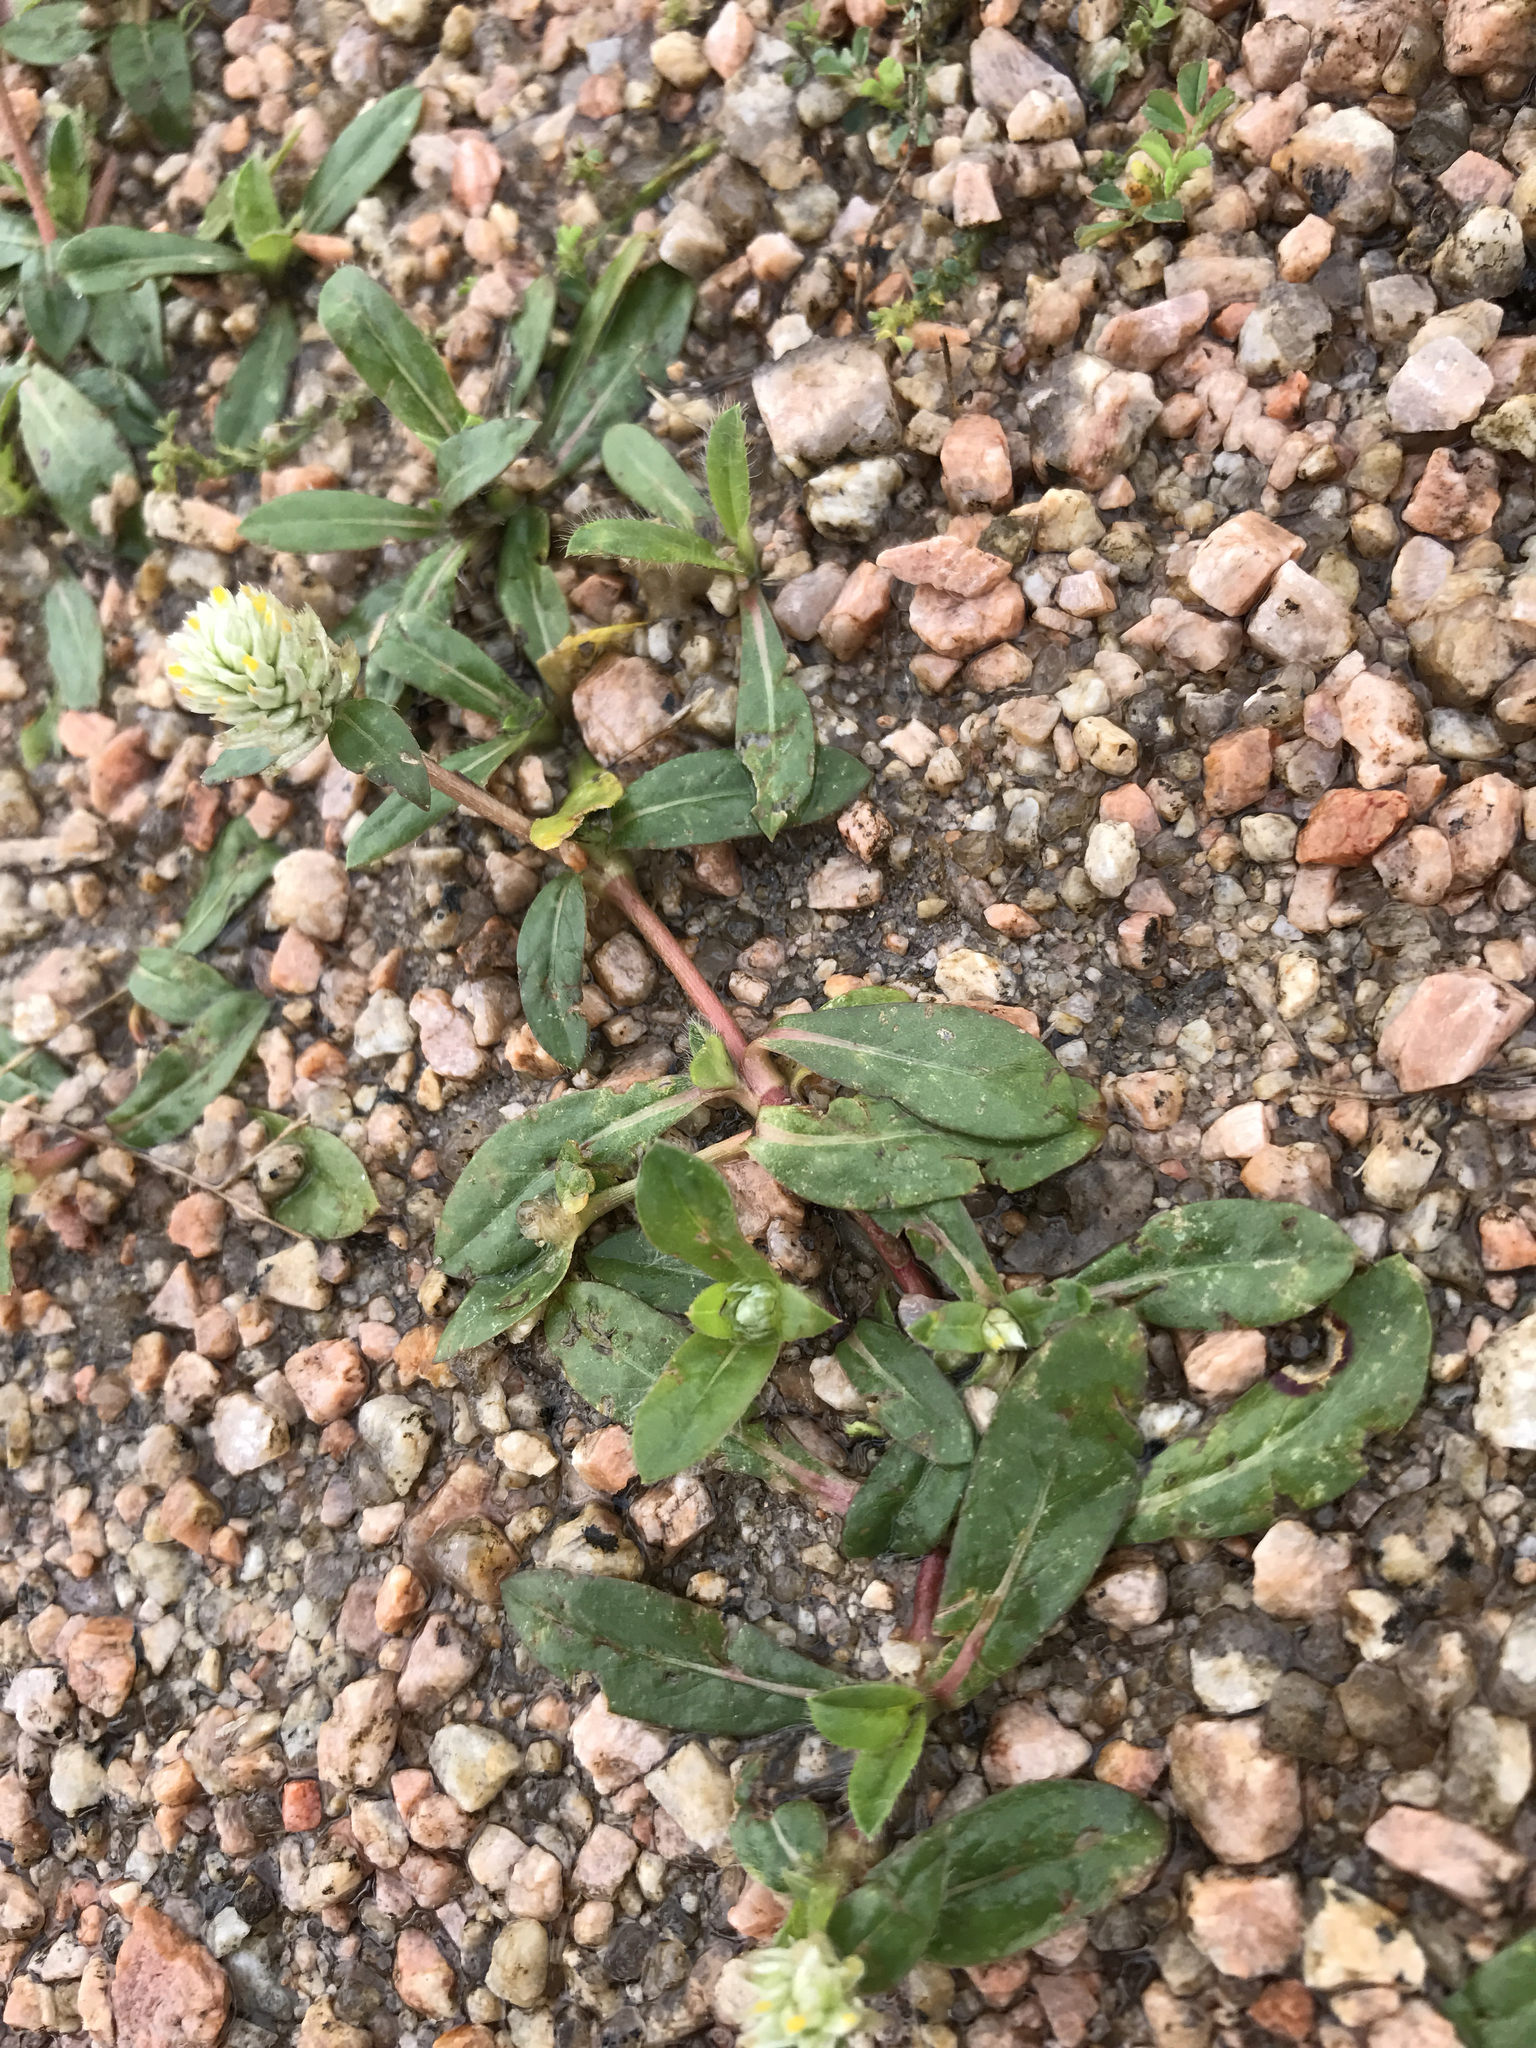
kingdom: Plantae
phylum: Tracheophyta
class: Magnoliopsida
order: Caryophyllales
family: Amaranthaceae
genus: Gomphrena
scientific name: Gomphrena serrata
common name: Arrasa con todo
